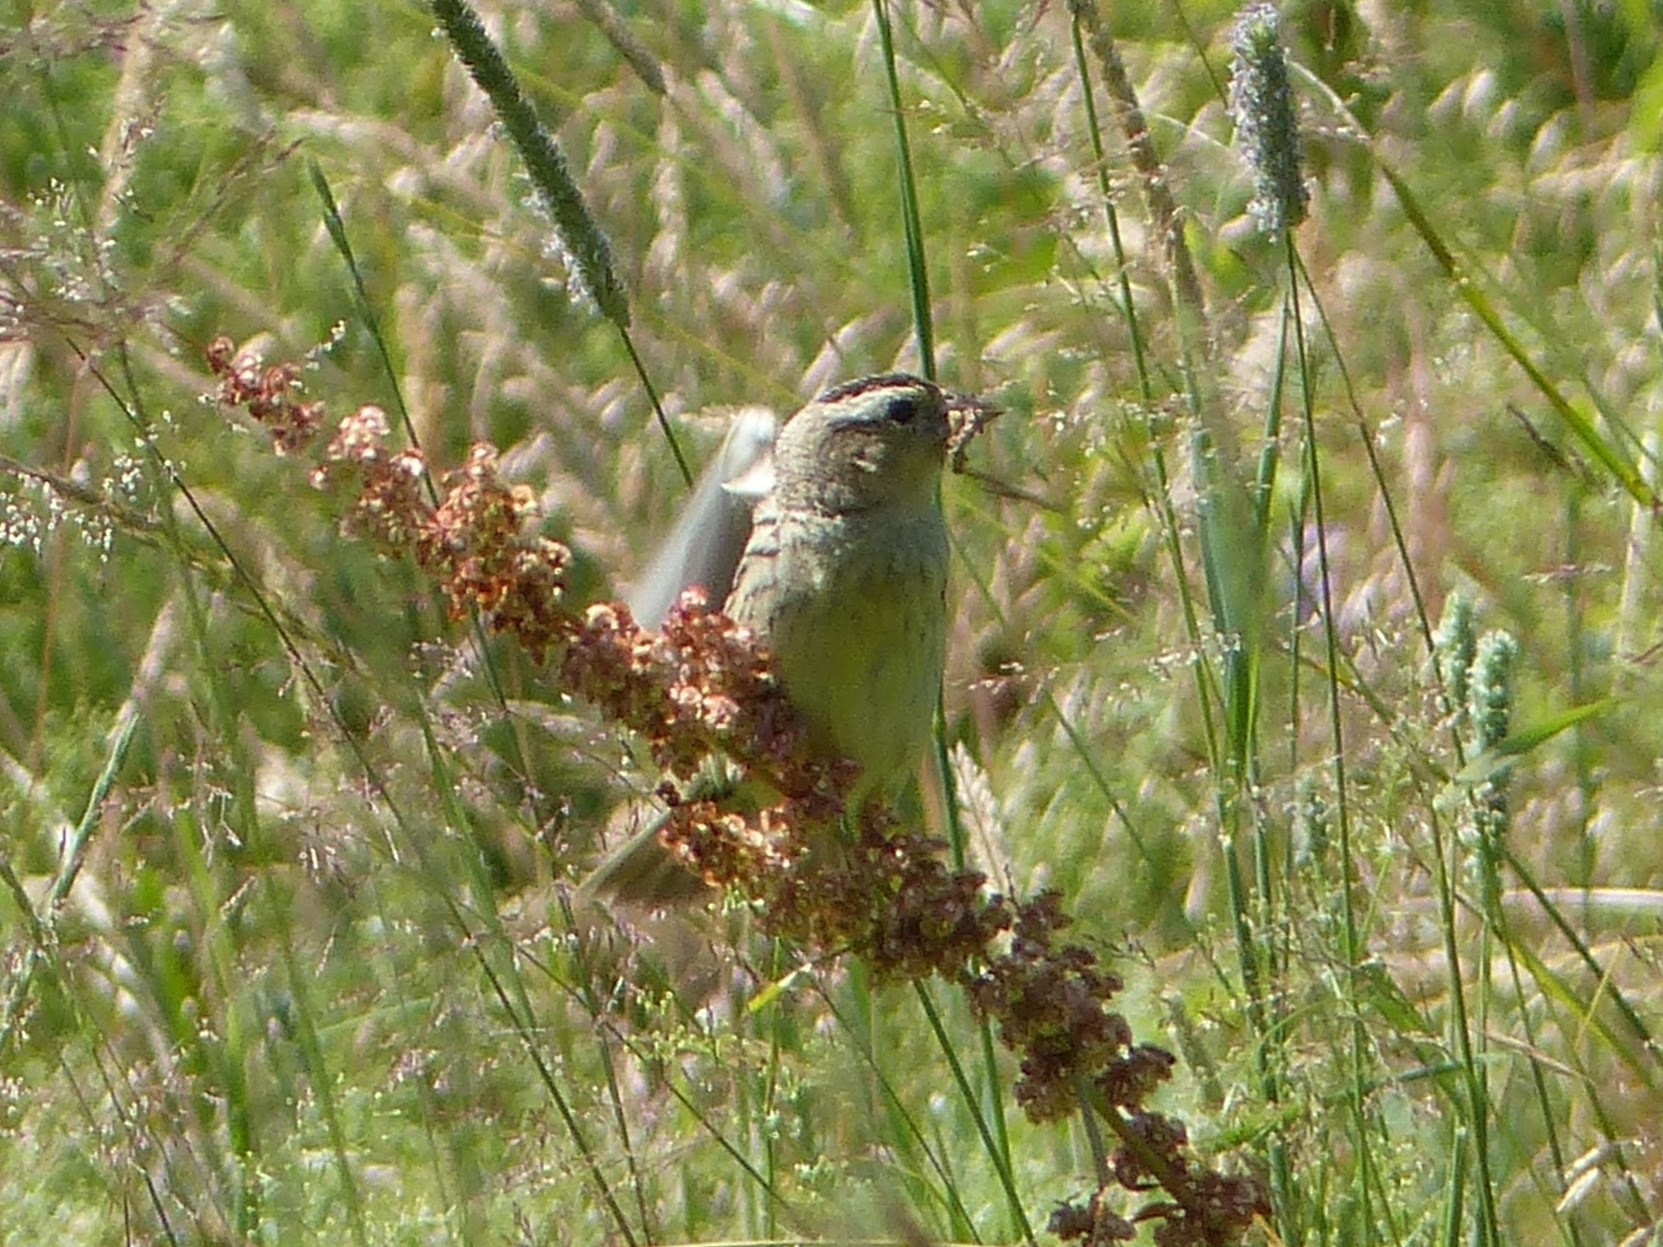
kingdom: Animalia
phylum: Chordata
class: Aves
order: Passeriformes
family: Icteridae
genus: Dolichonyx
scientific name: Dolichonyx oryzivorus
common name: Bobolink
